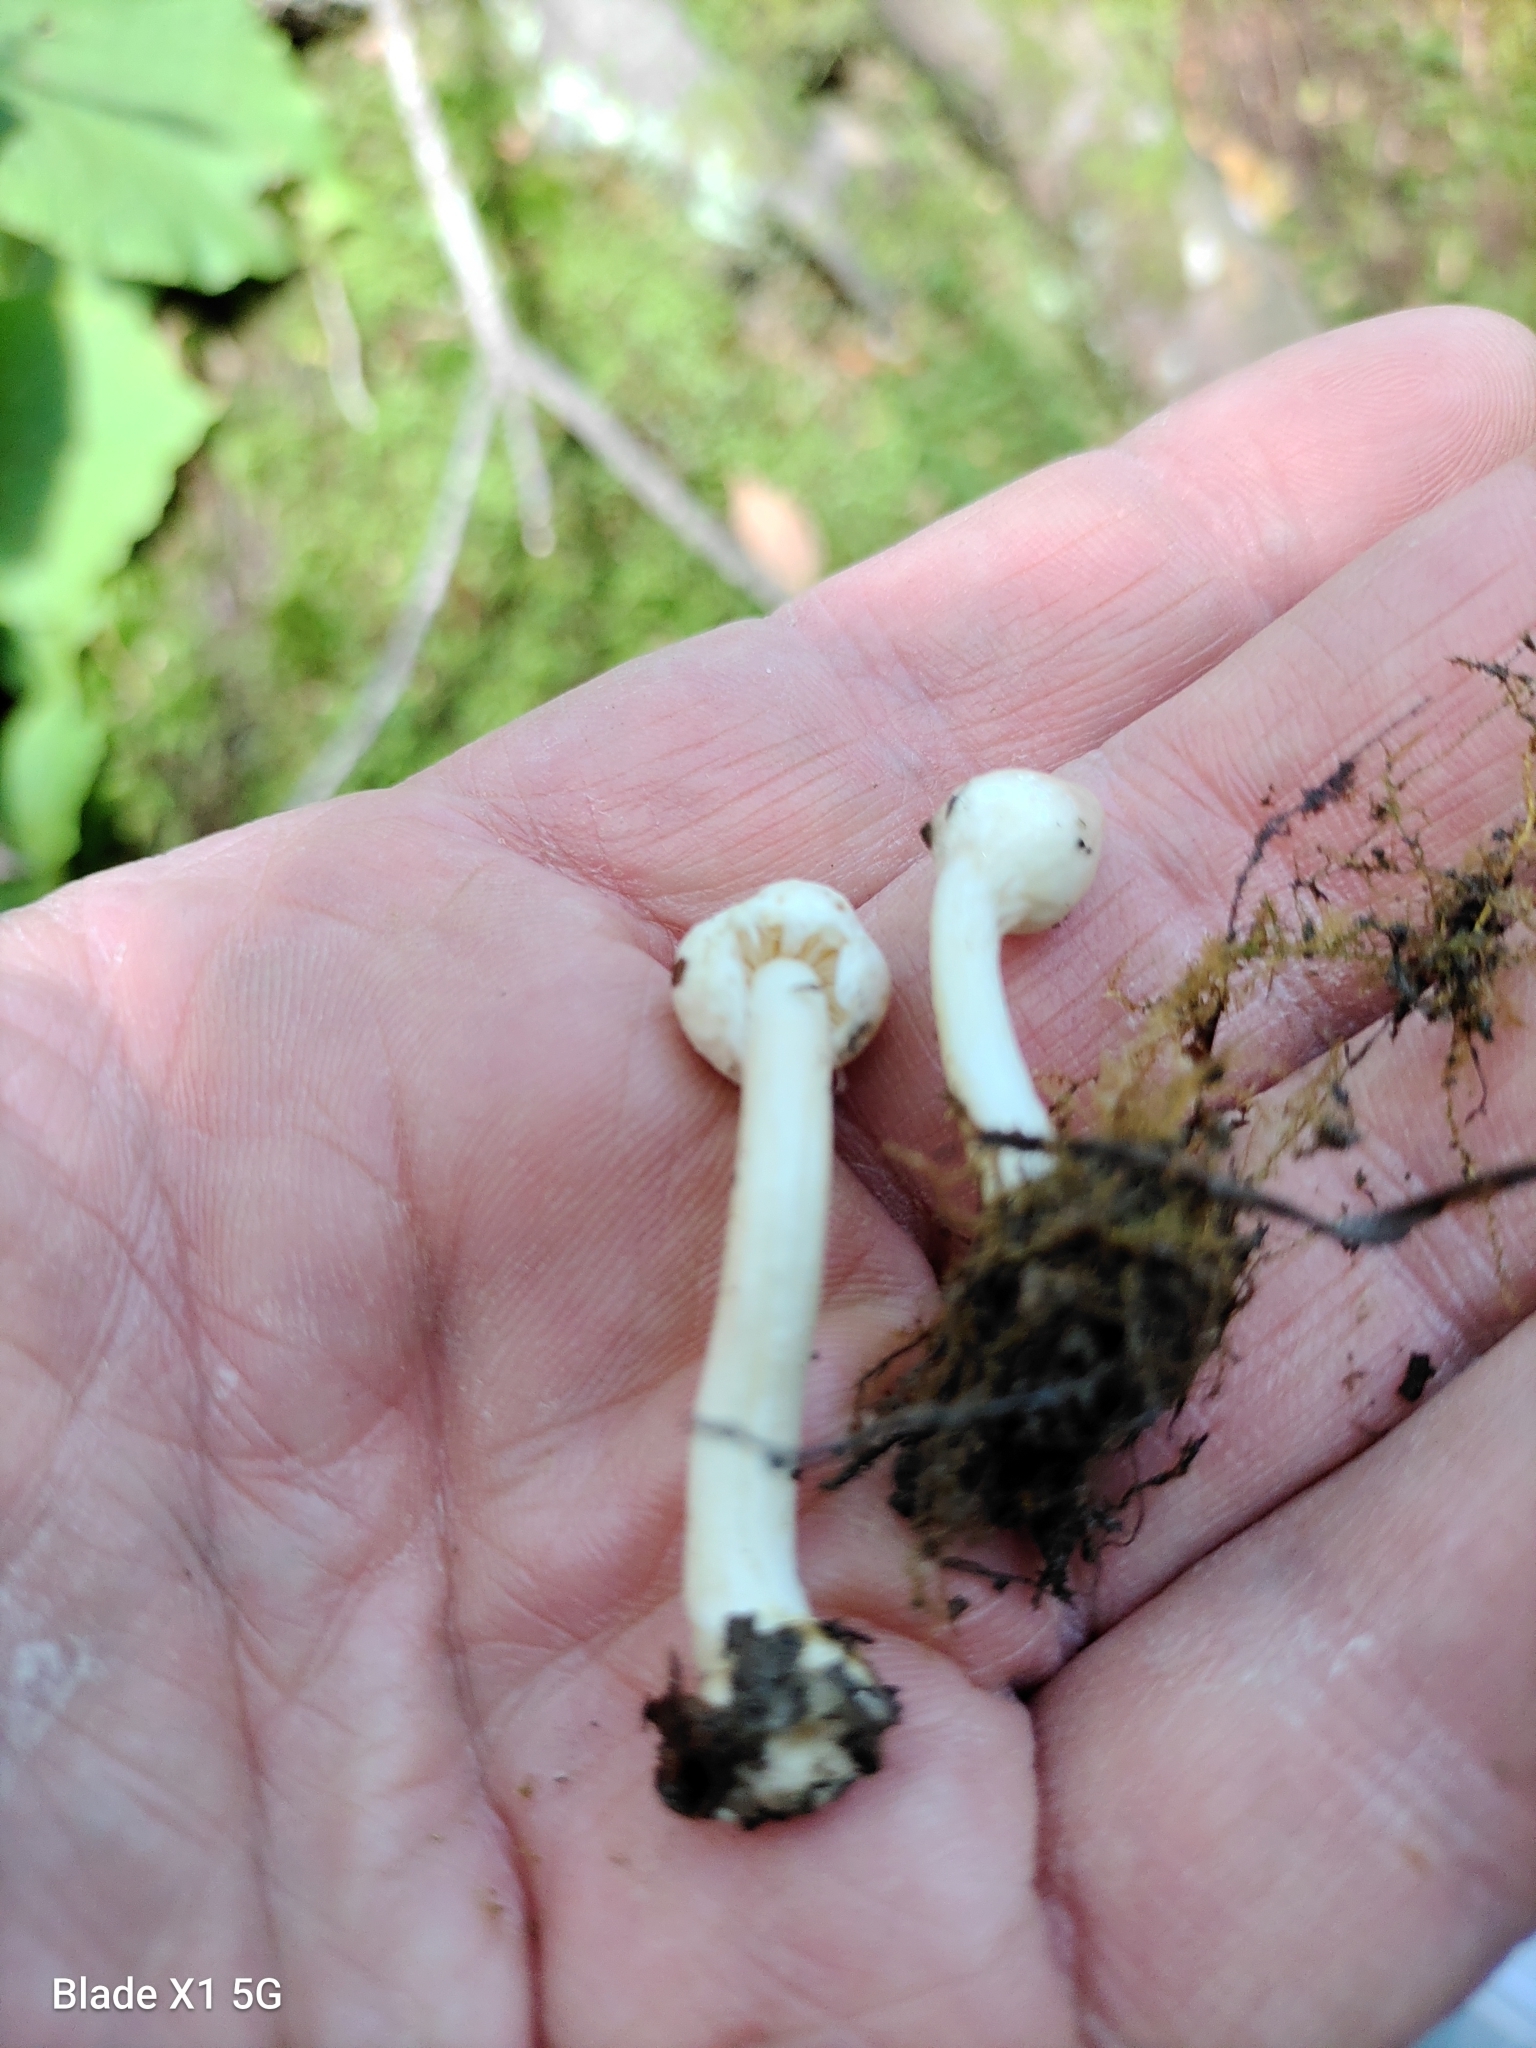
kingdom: Fungi
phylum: Basidiomycota
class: Agaricomycetes
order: Agaricales
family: Inocybaceae
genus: Inocybe
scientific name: Inocybe sindonia
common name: Beige fibrecap
